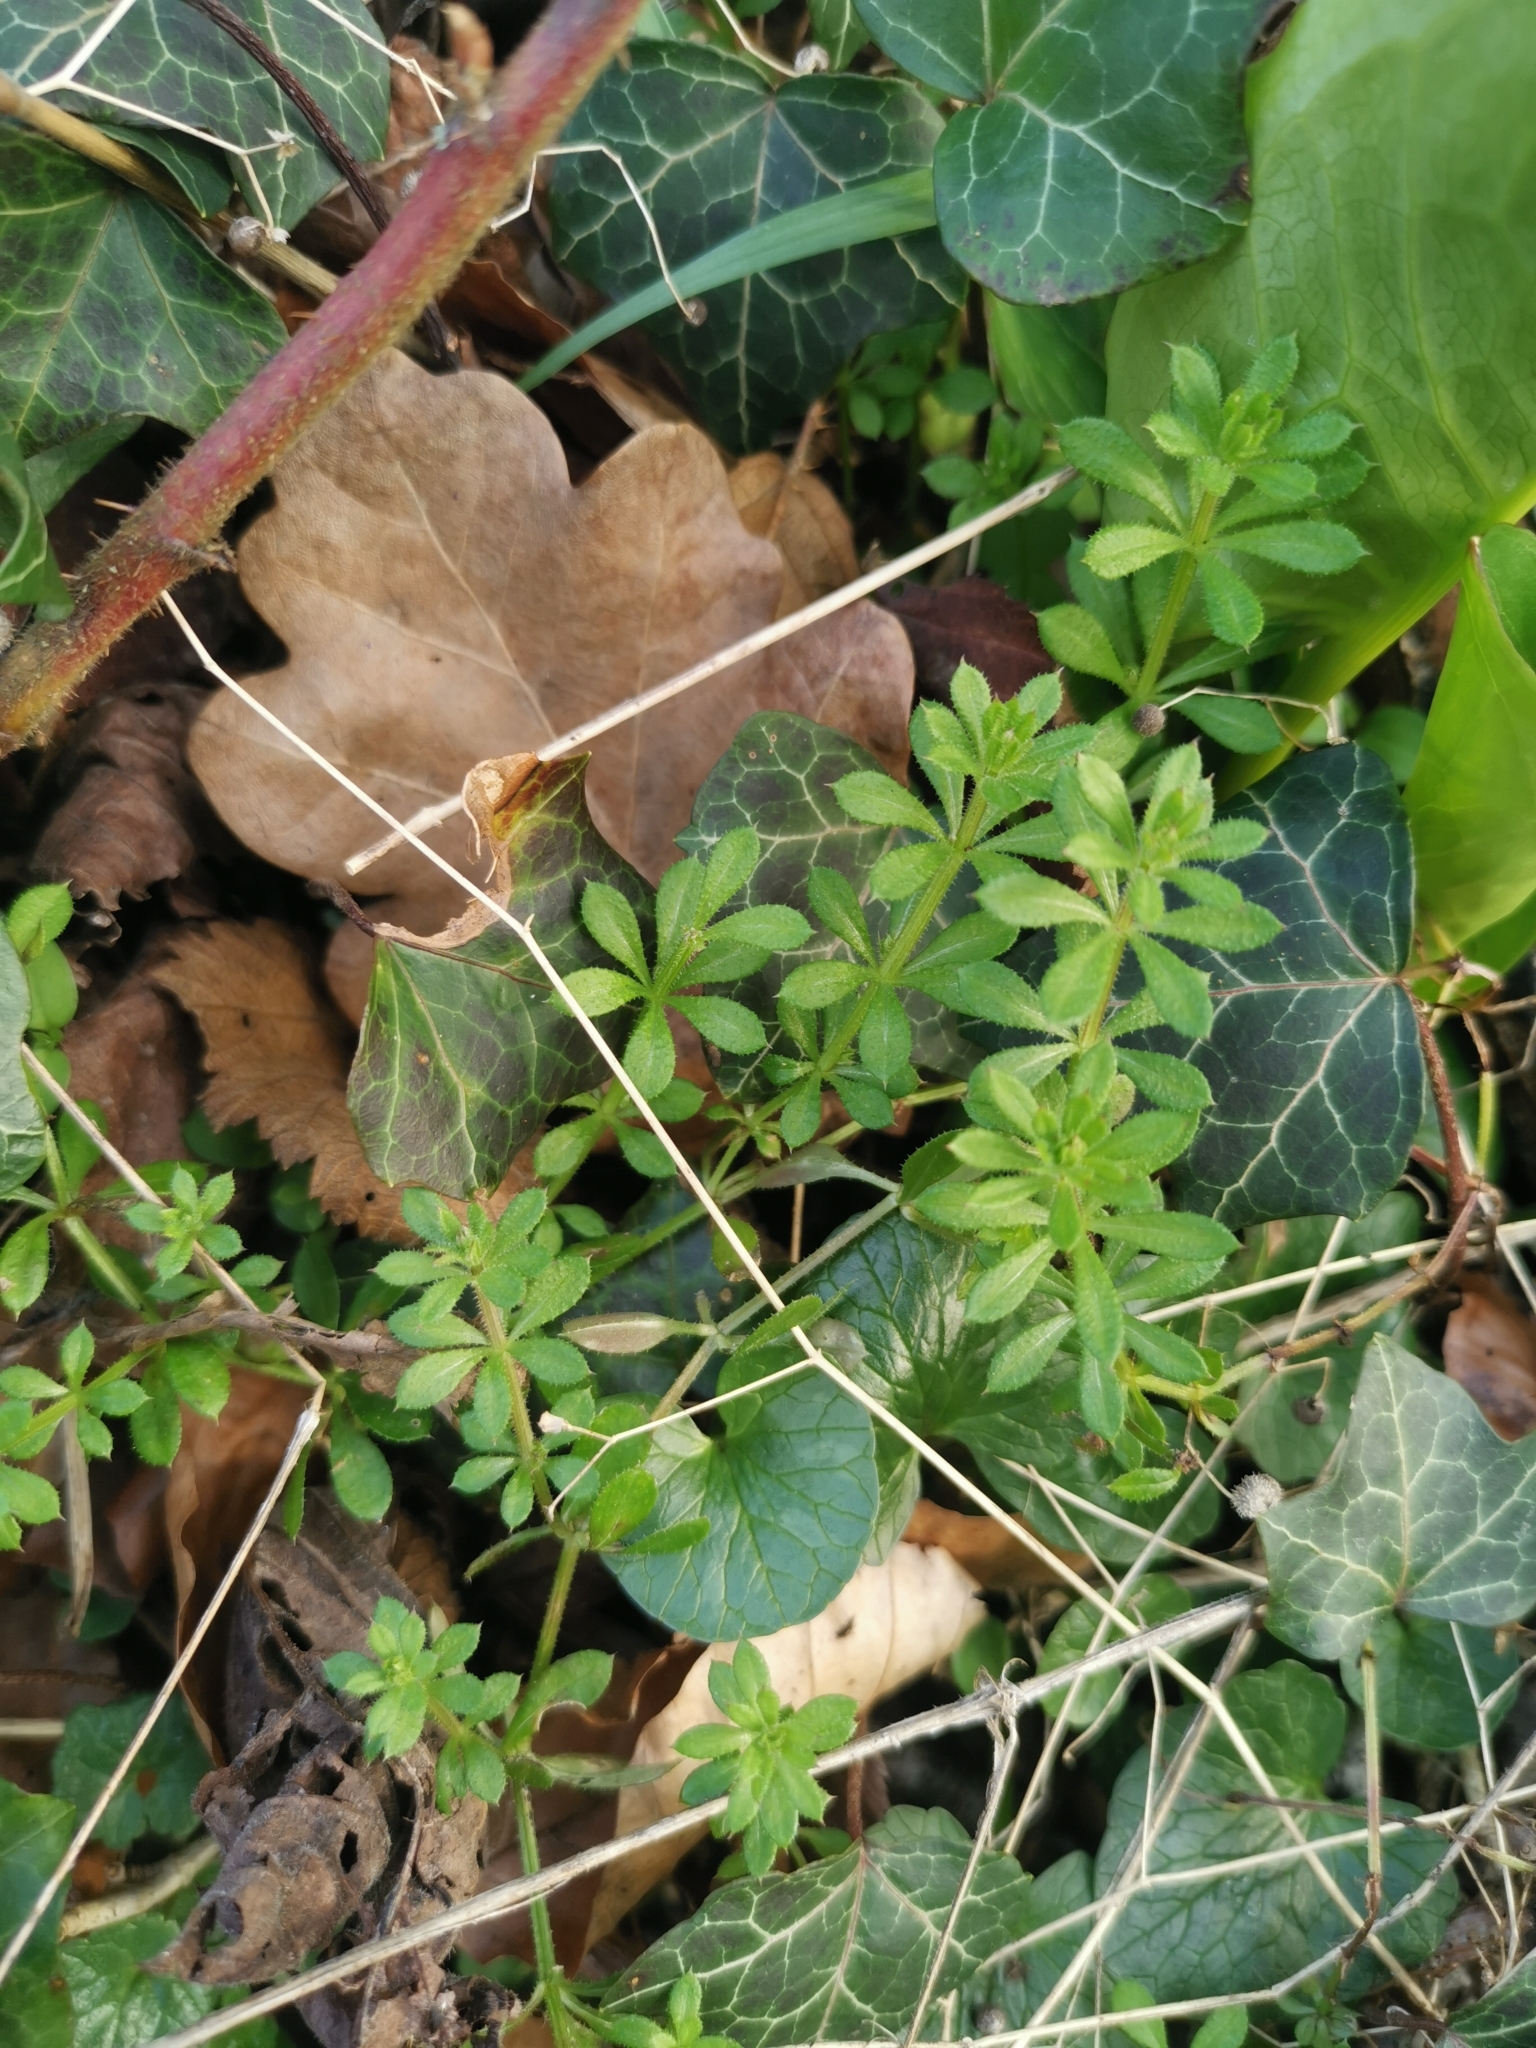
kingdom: Plantae
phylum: Tracheophyta
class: Magnoliopsida
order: Gentianales
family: Rubiaceae
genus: Galium
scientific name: Galium aparine
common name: Cleavers
